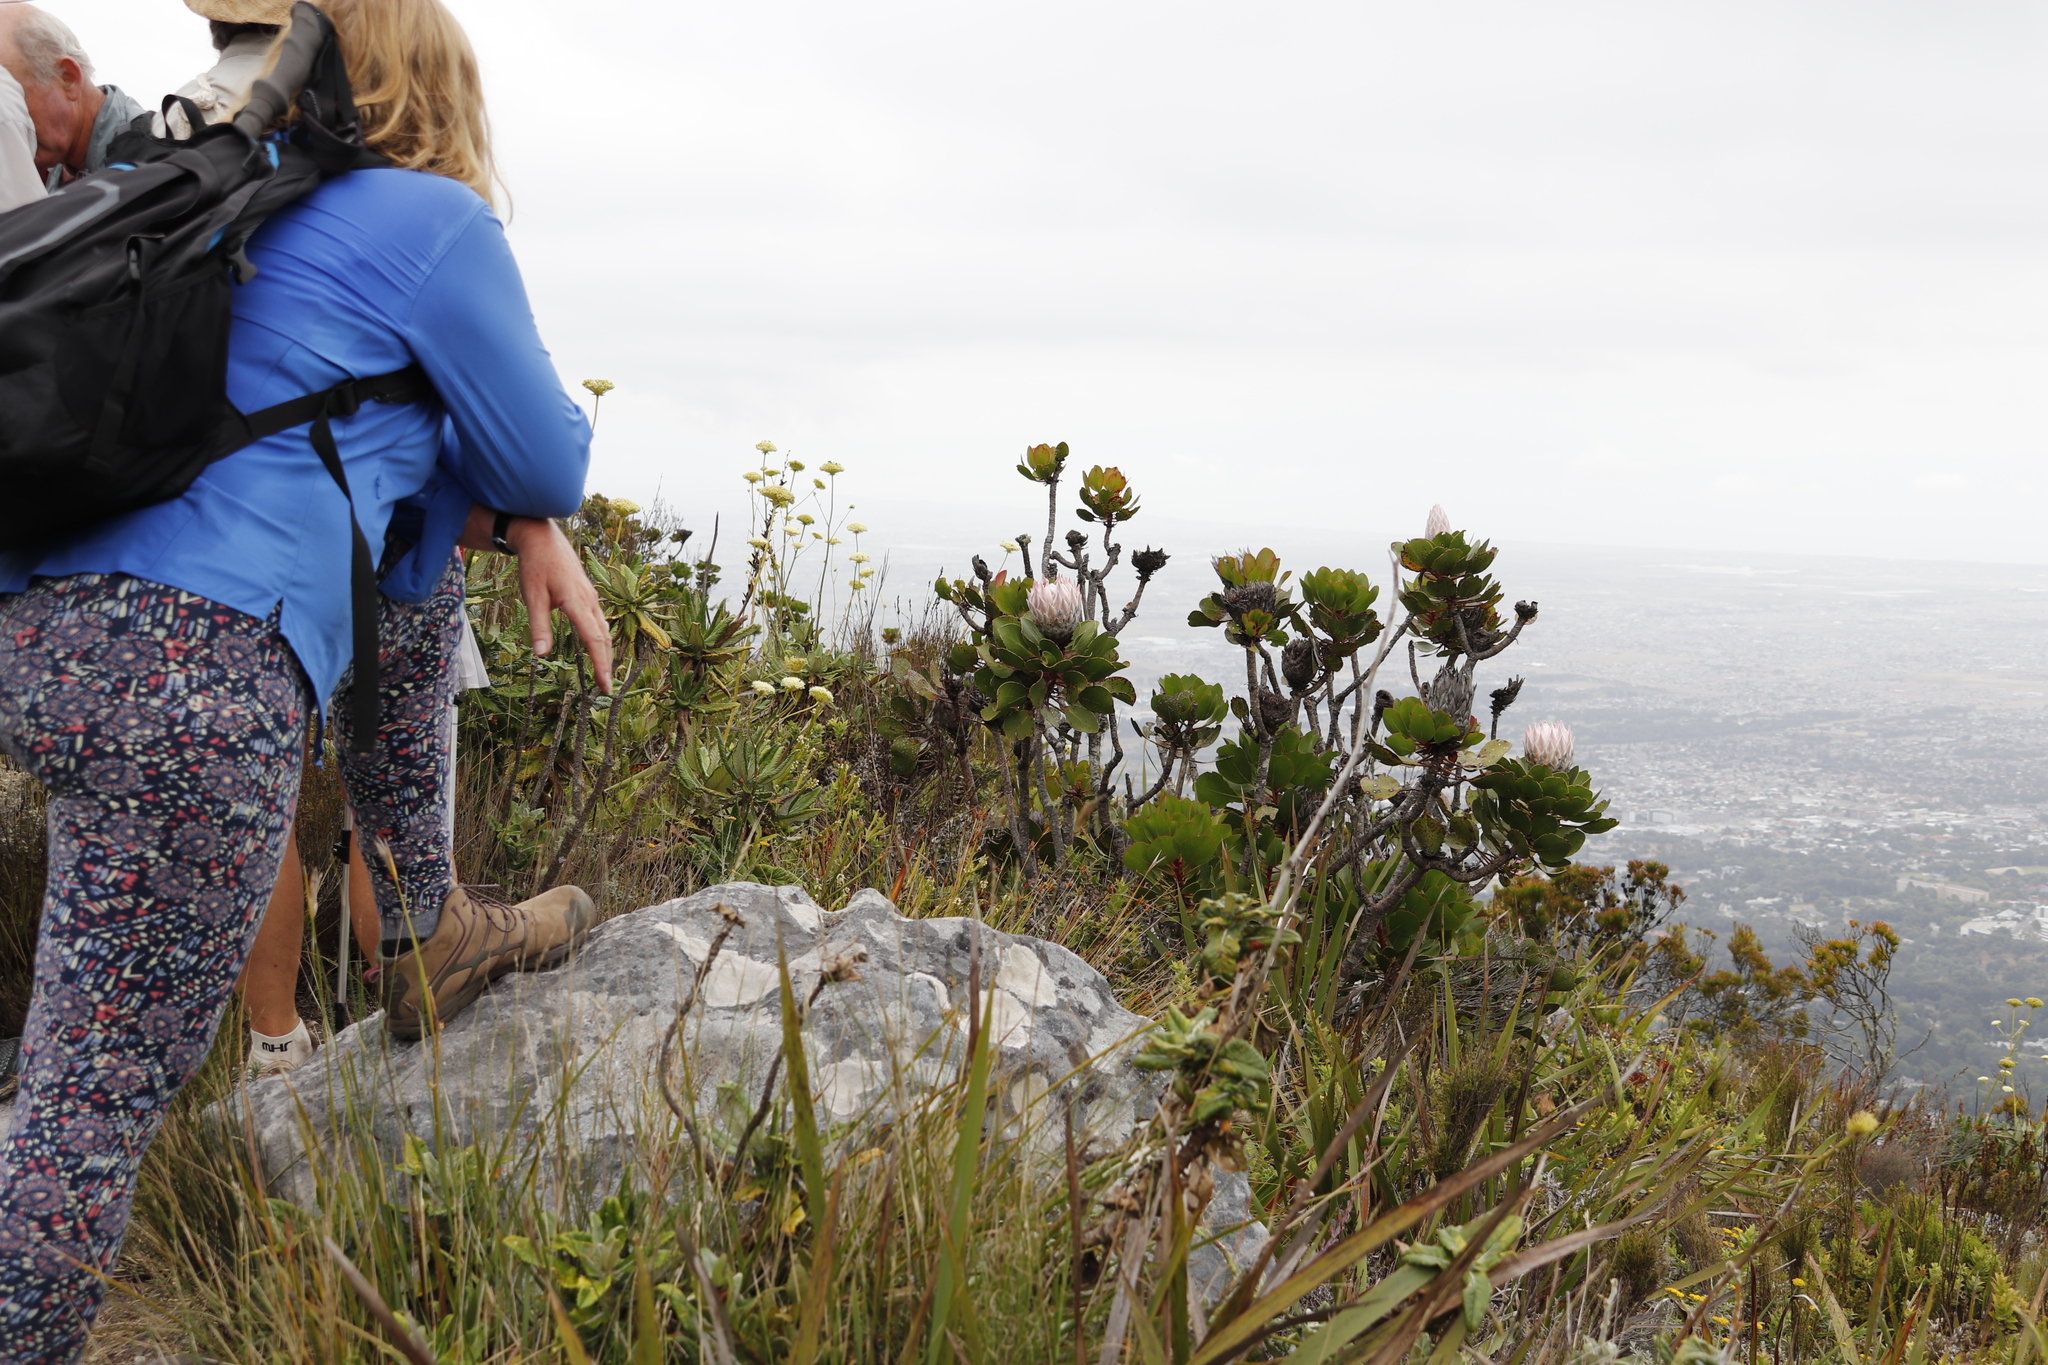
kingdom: Plantae
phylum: Tracheophyta
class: Magnoliopsida
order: Proteales
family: Proteaceae
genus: Protea
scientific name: Protea cynaroides
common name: King protea
